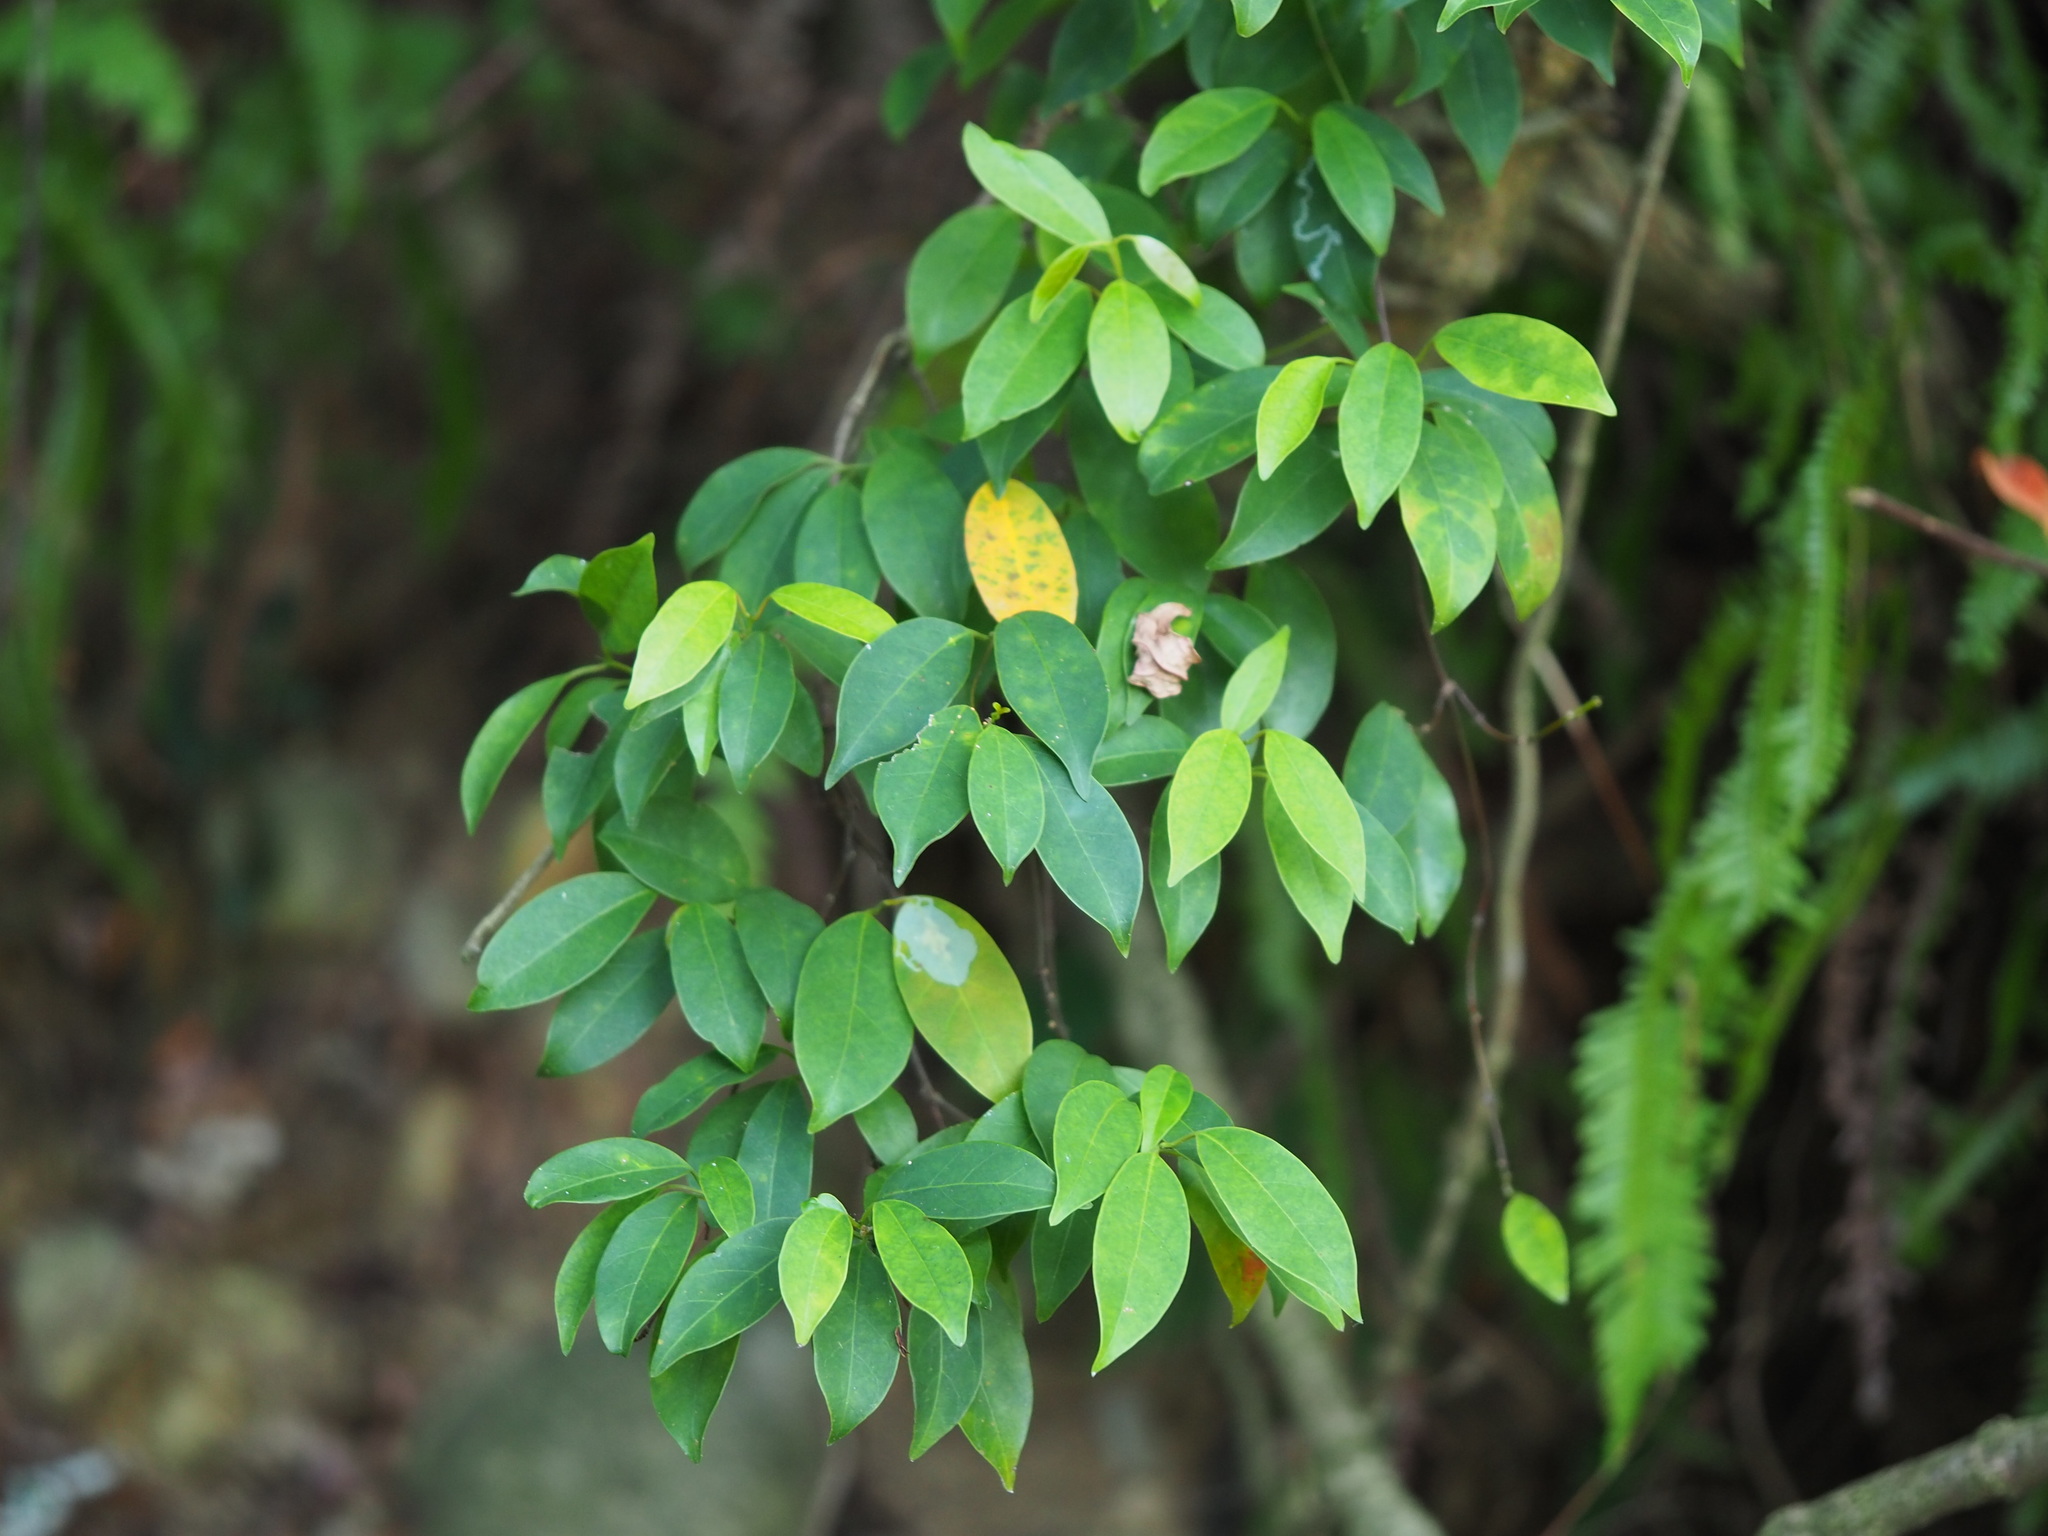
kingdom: Plantae
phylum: Tracheophyta
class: Magnoliopsida
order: Gentianales
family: Apocynaceae
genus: Urceola
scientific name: Urceola rosea
